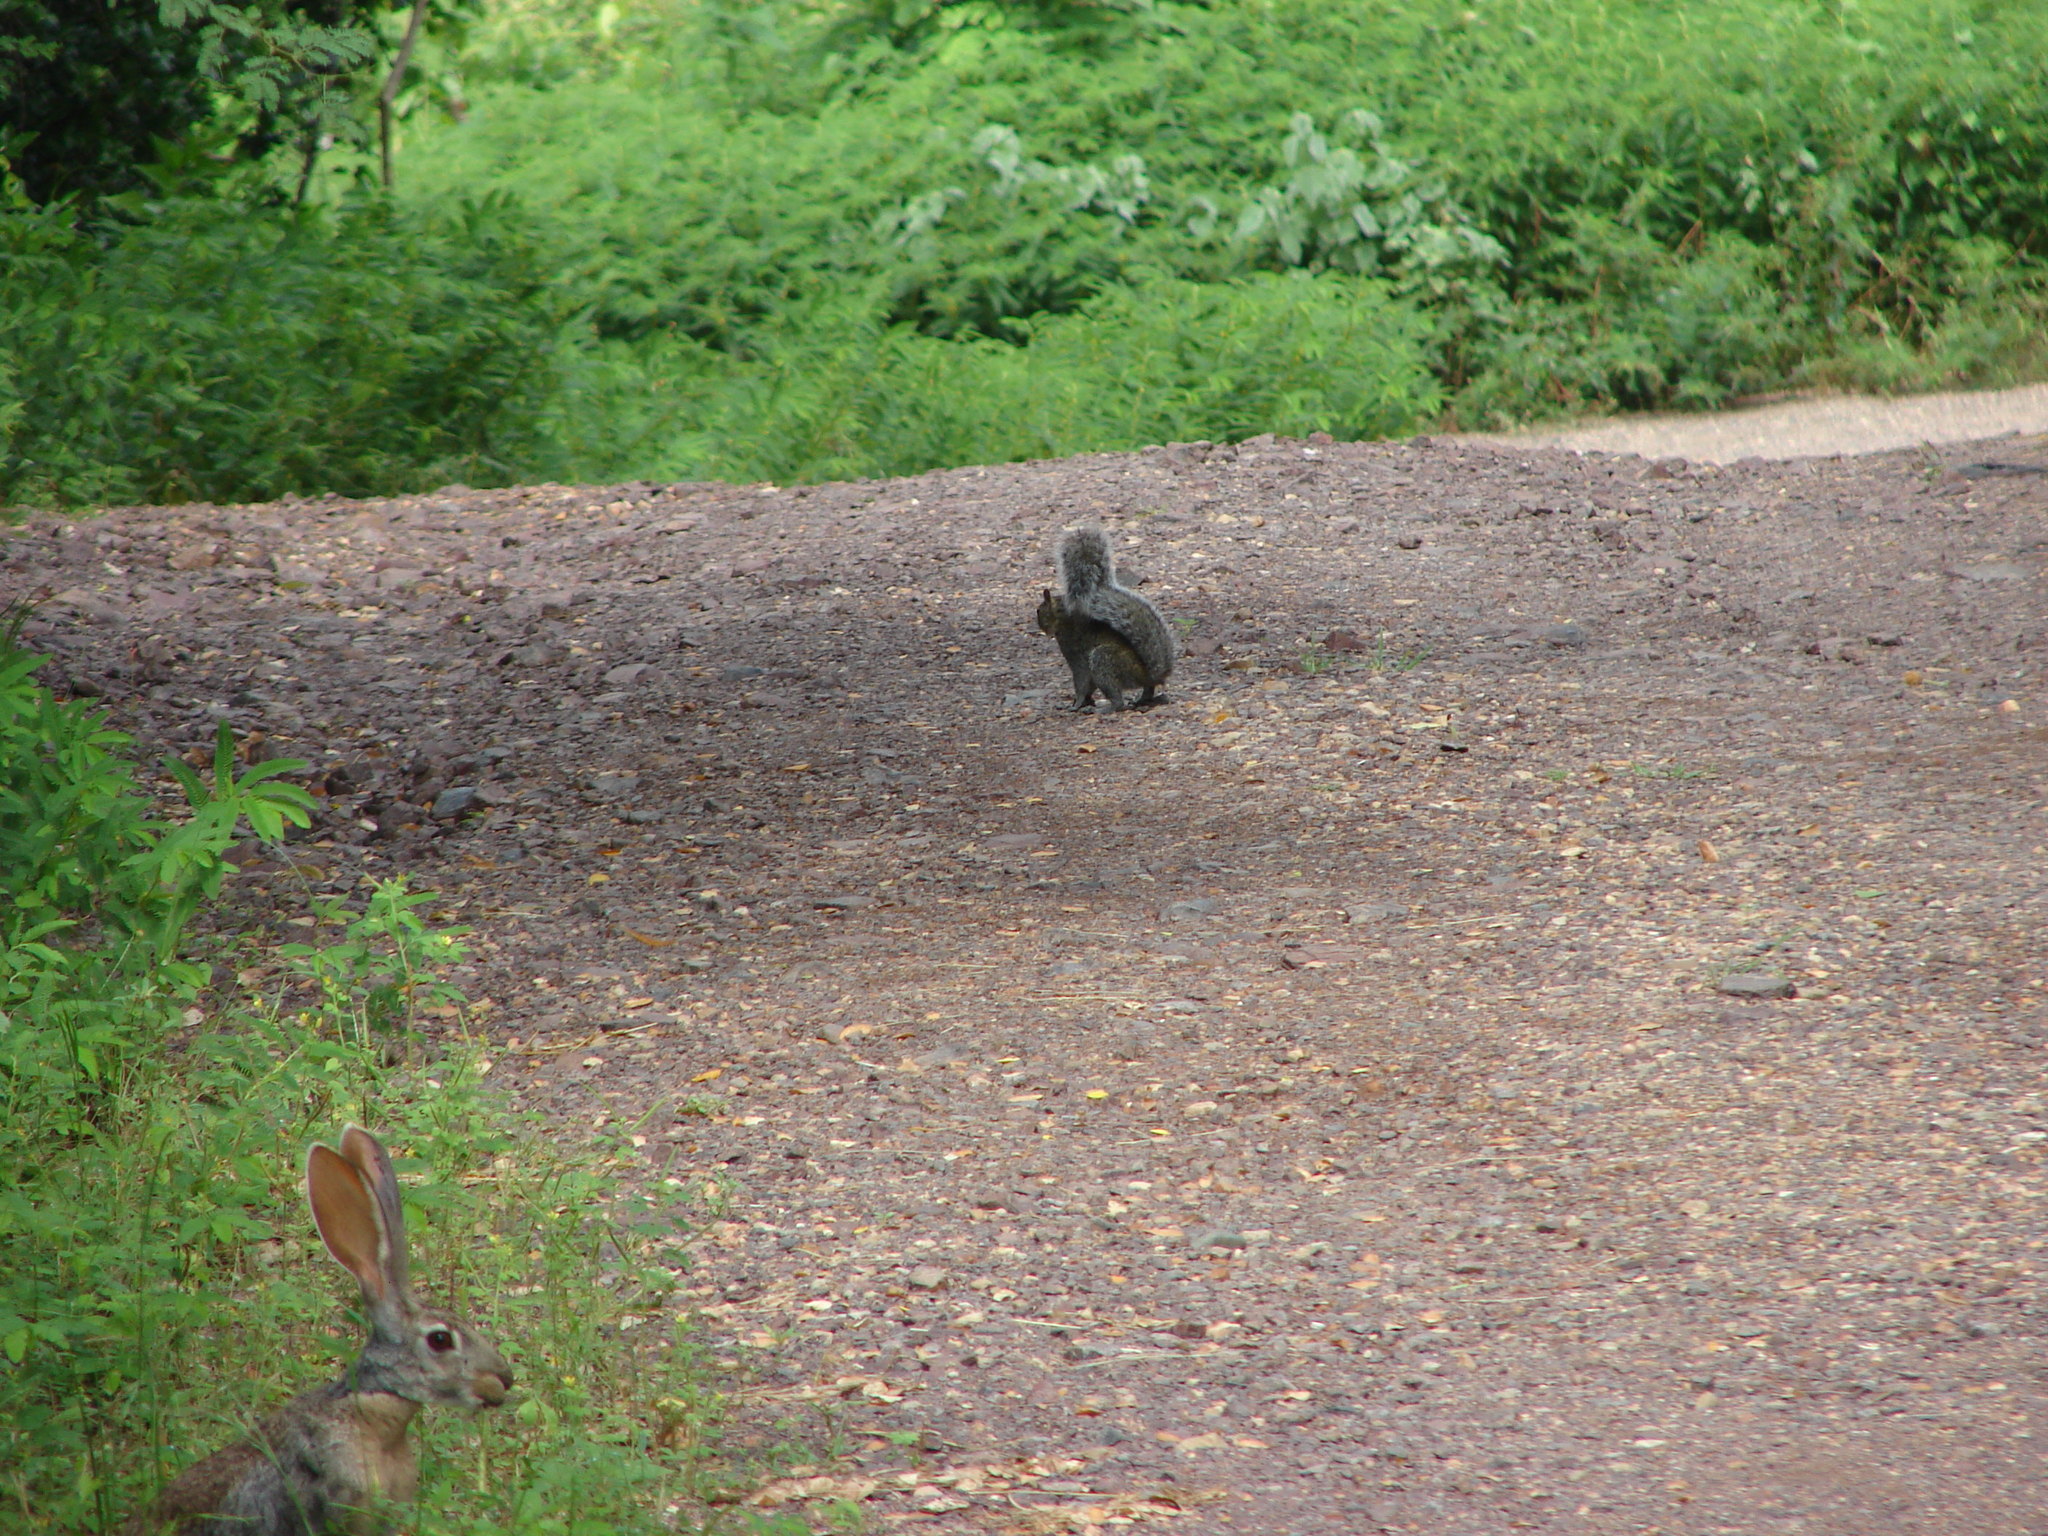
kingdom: Animalia
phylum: Chordata
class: Mammalia
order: Rodentia
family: Sciuridae
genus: Sciurus
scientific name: Sciurus colliaei
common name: Collie's squirrel
